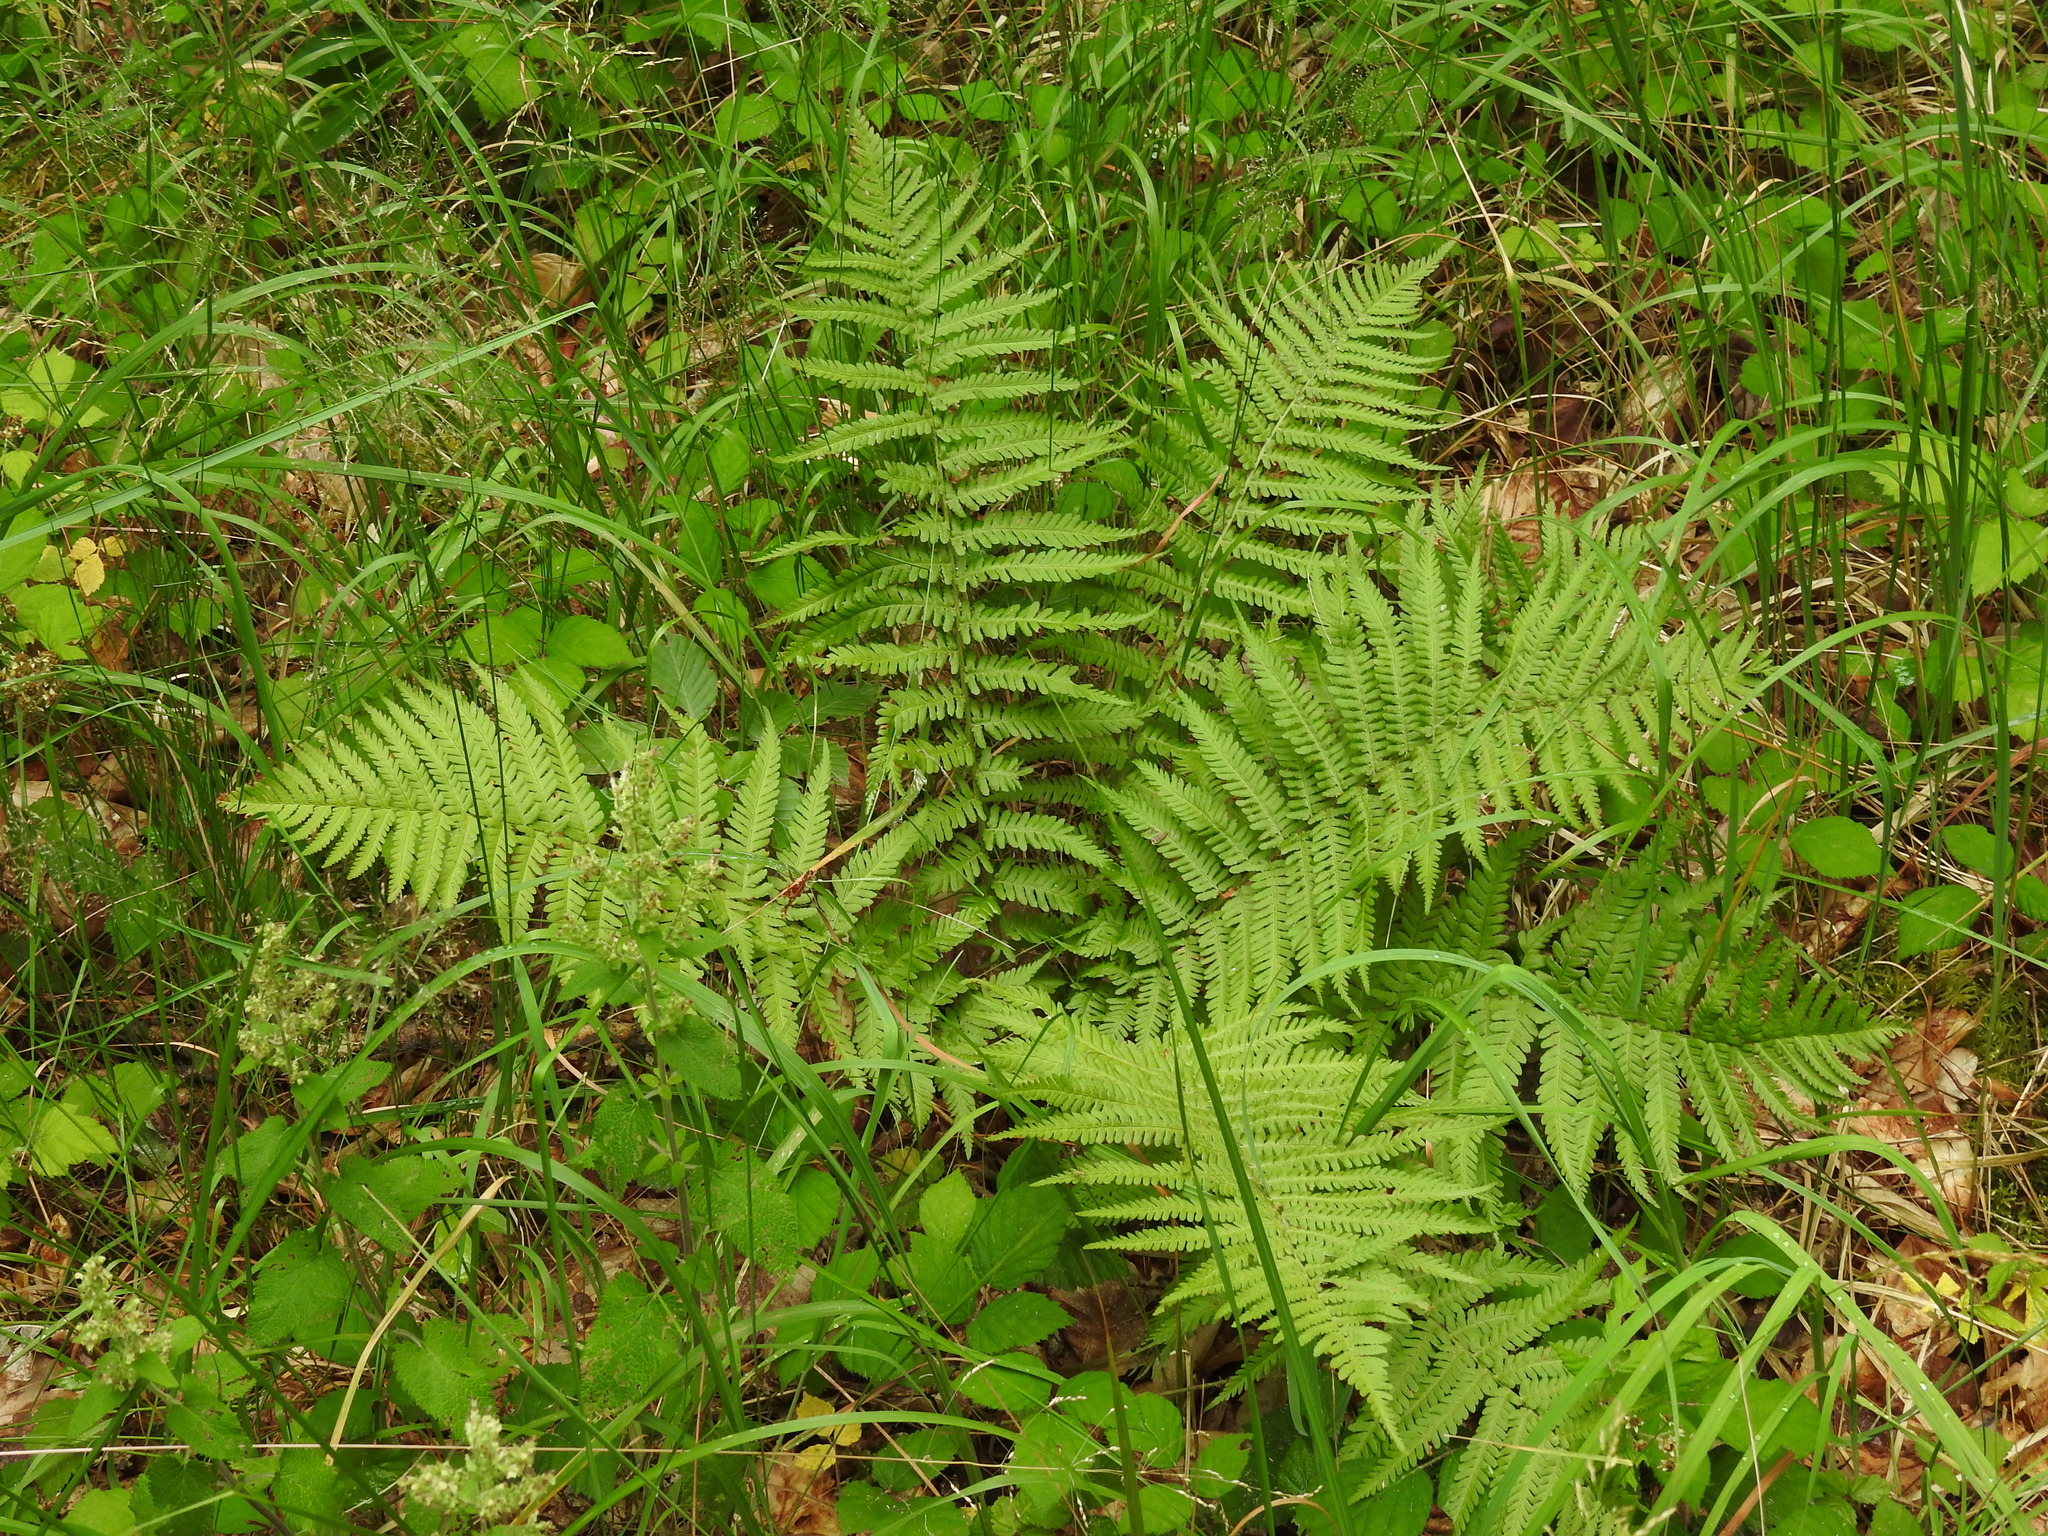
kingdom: Plantae
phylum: Tracheophyta
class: Polypodiopsida
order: Polypodiales
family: Dryopteridaceae
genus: Dryopteris
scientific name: Dryopteris filix-mas
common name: Male fern
